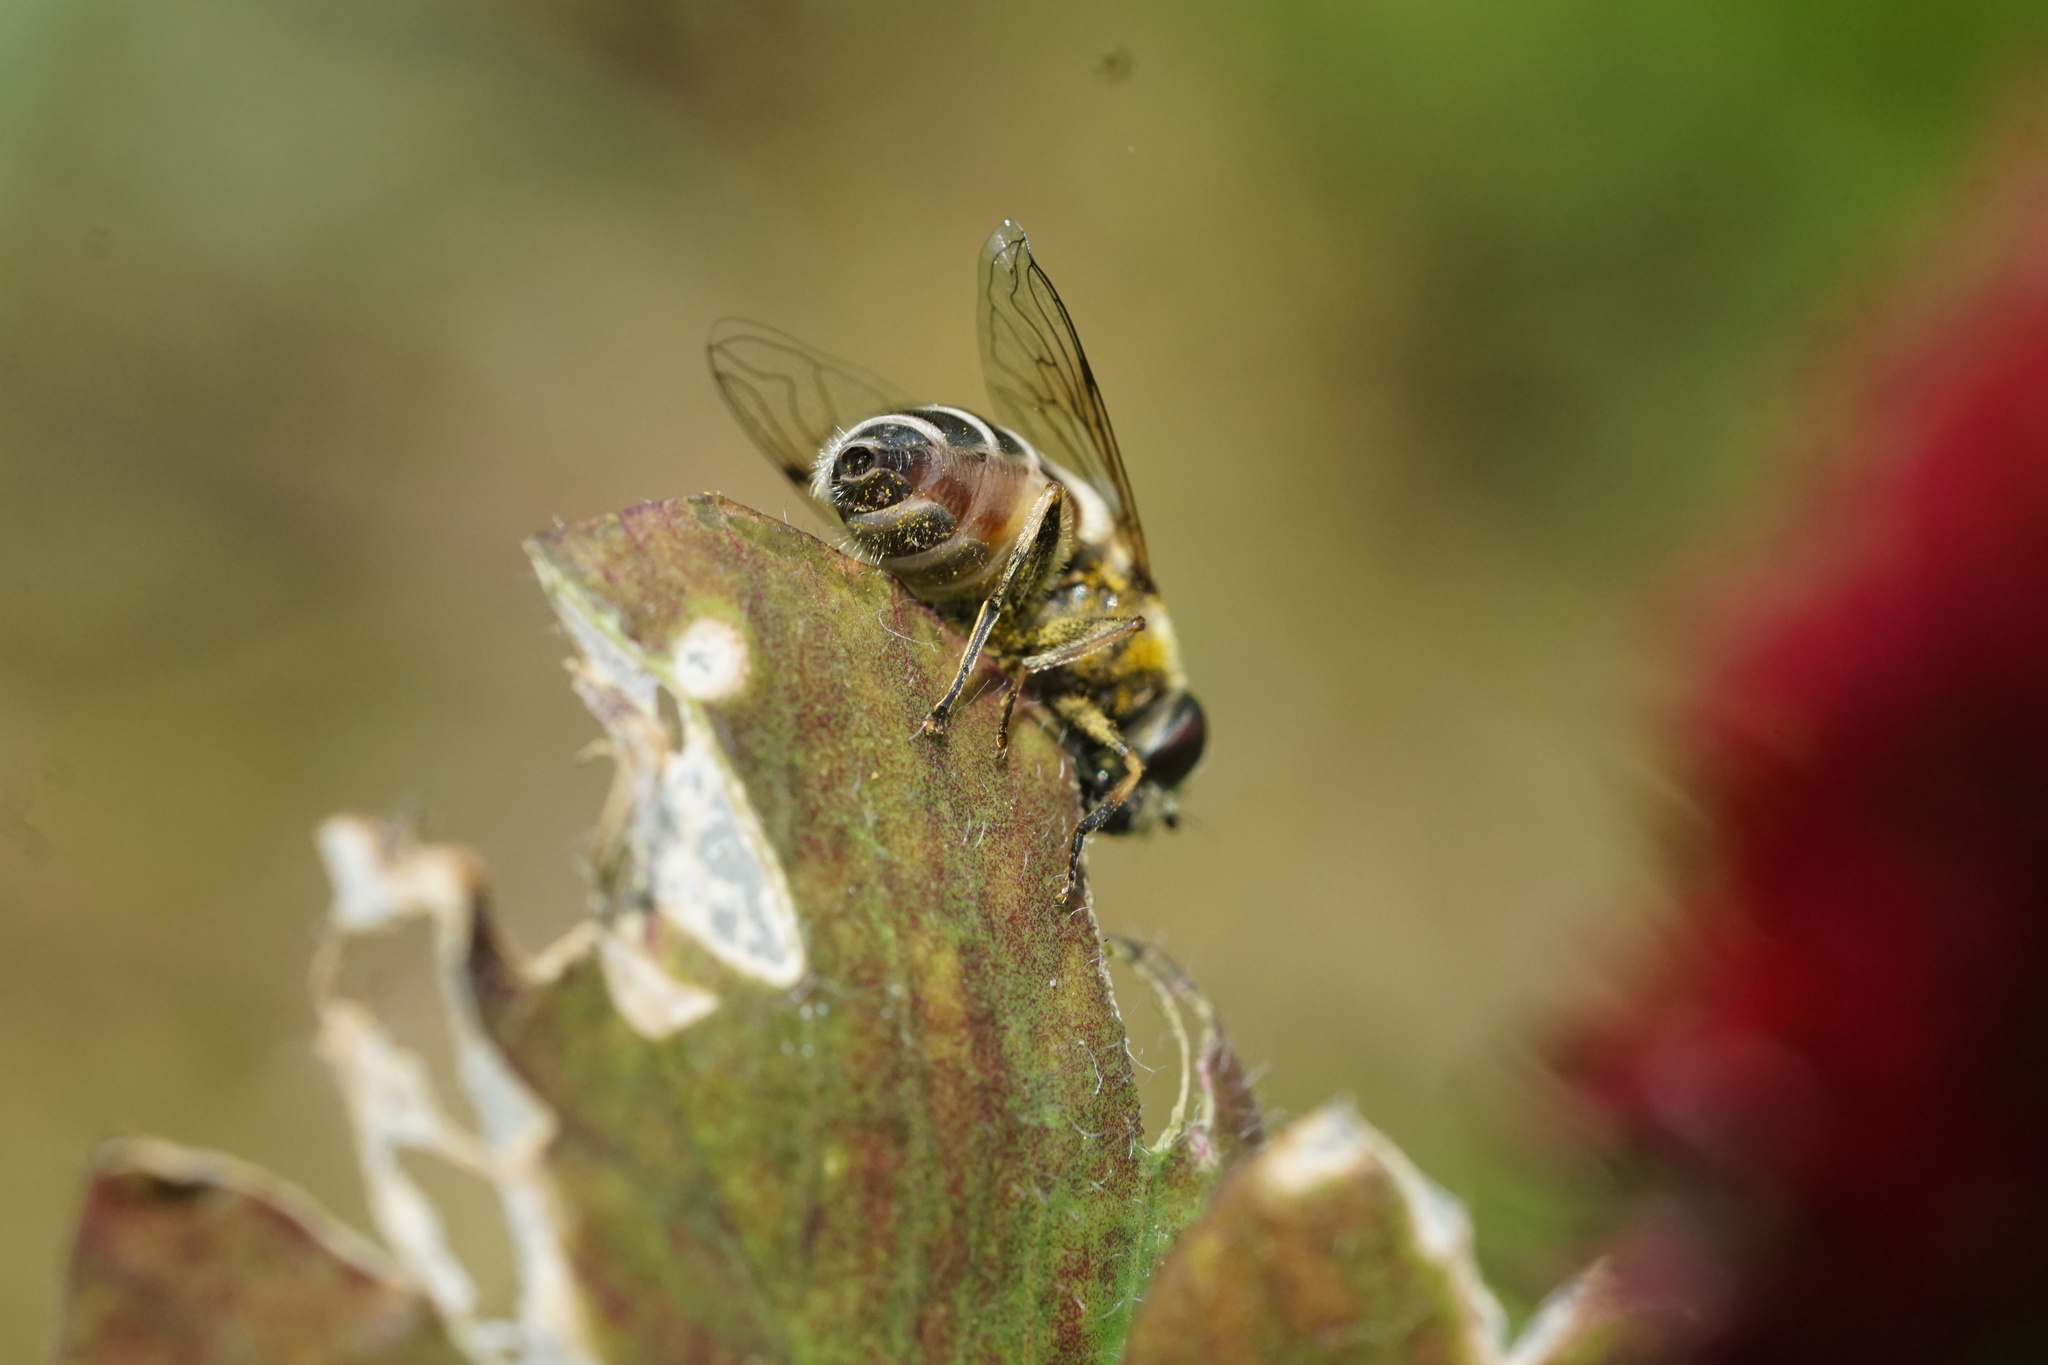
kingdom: Animalia
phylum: Arthropoda
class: Insecta
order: Diptera
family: Syrphidae
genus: Eristalis
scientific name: Eristalis arbustorum
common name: Hover fly
